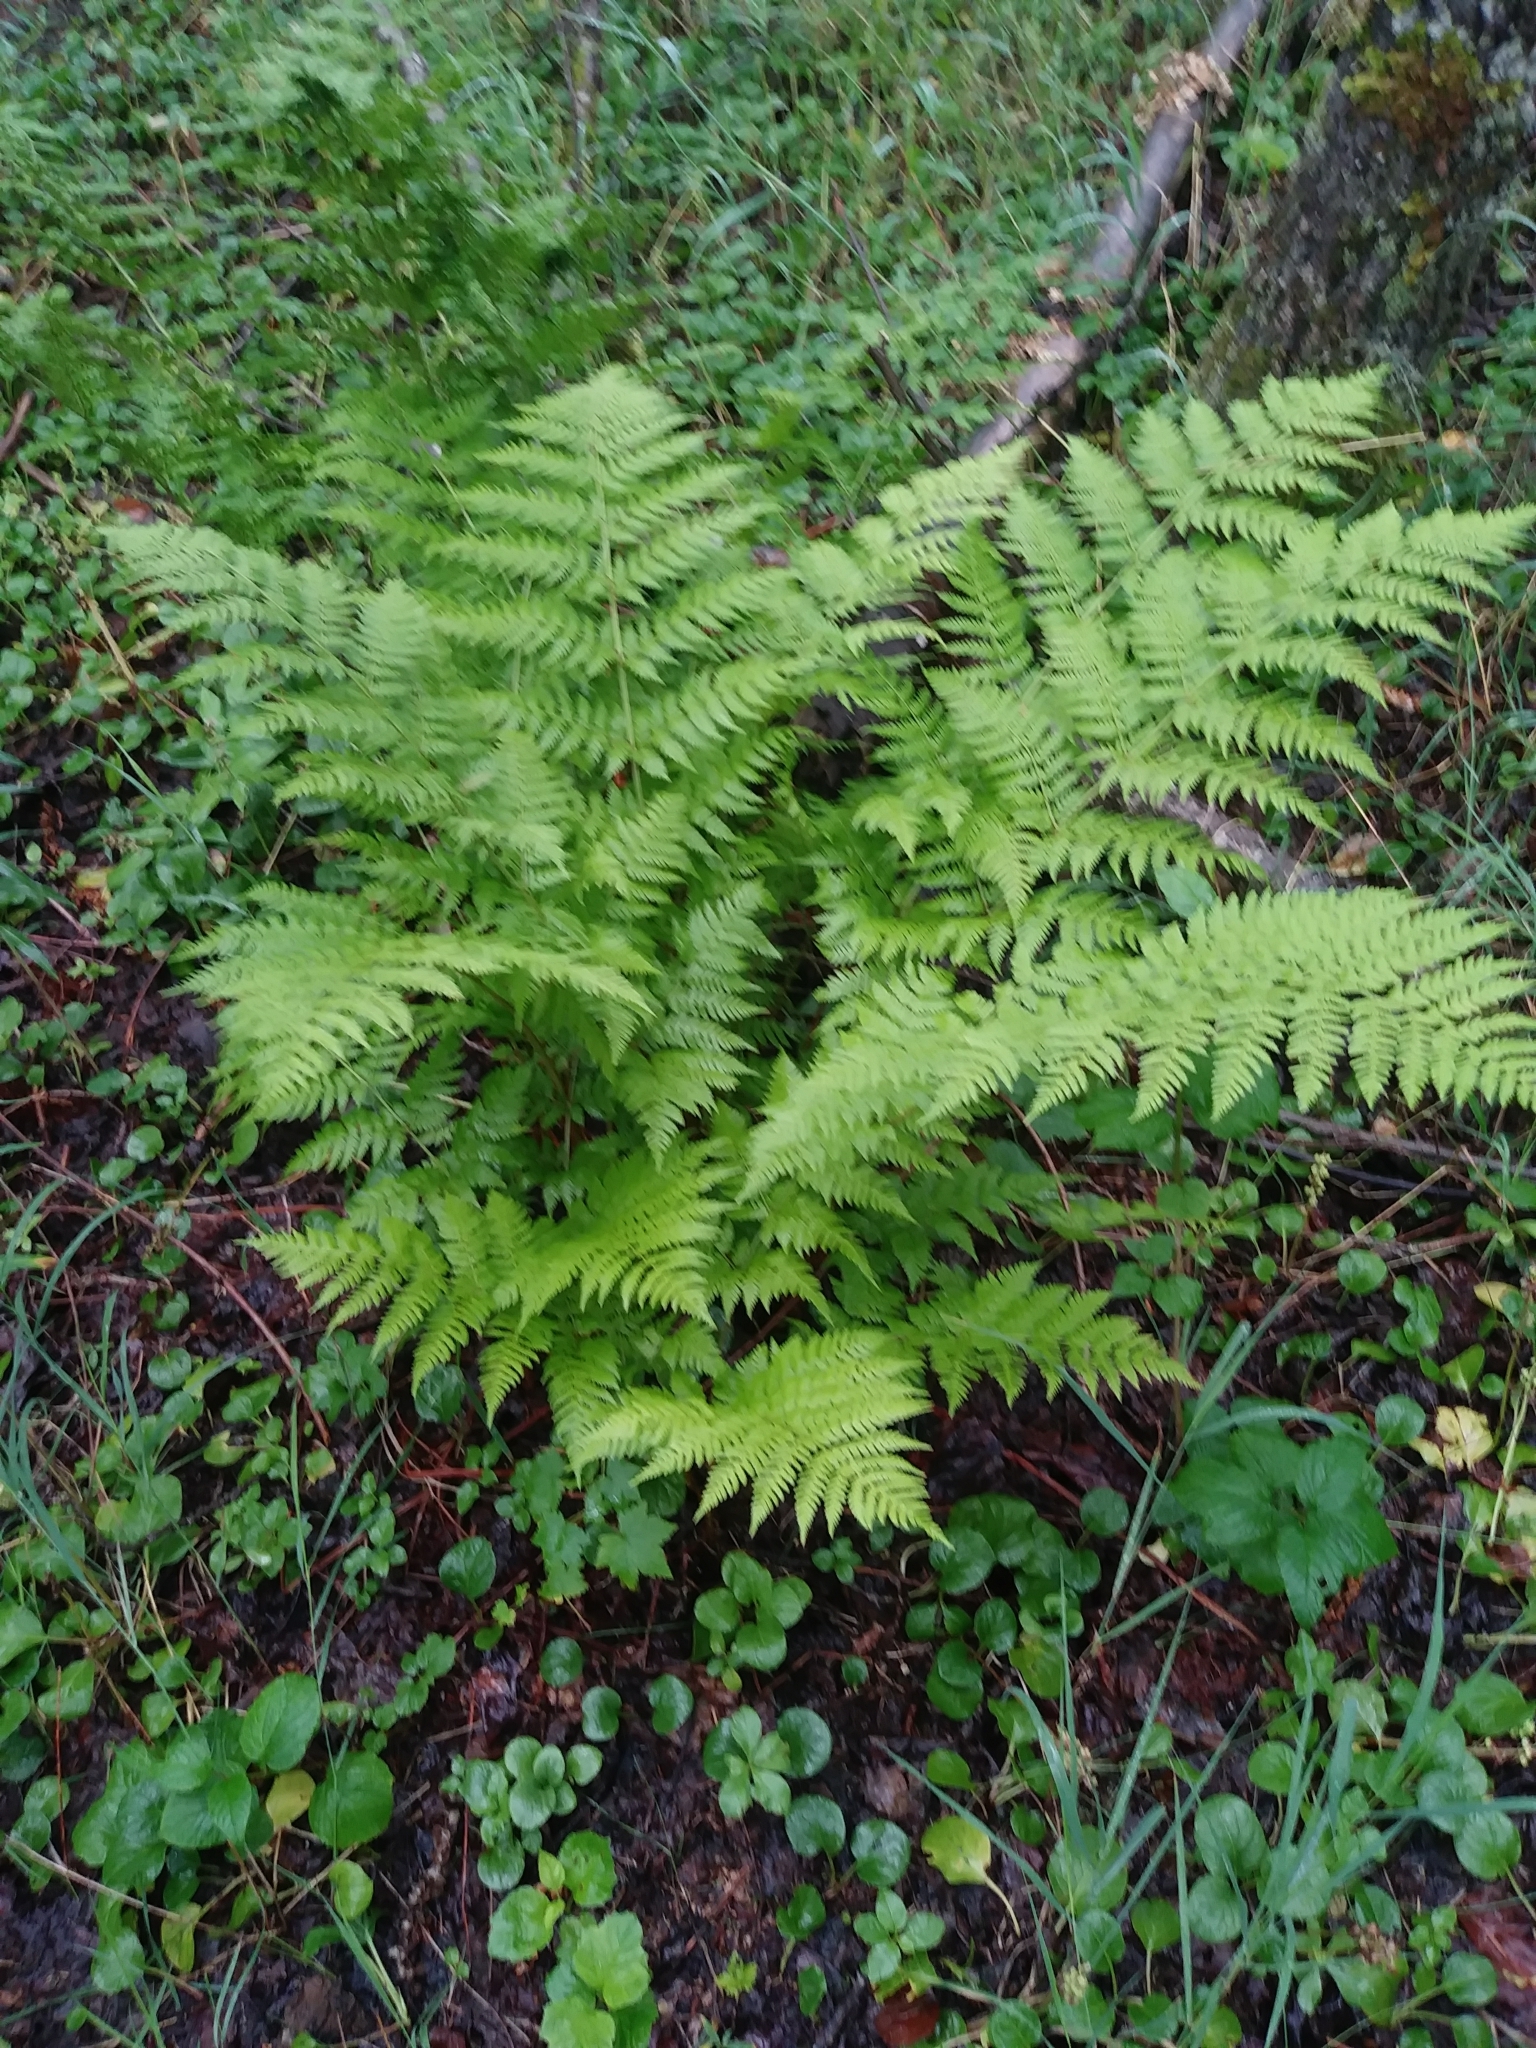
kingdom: Plantae
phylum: Tracheophyta
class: Polypodiopsida
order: Polypodiales
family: Dryopteridaceae
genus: Dryopteris
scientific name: Dryopteris expansa
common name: Northern buckler fern
